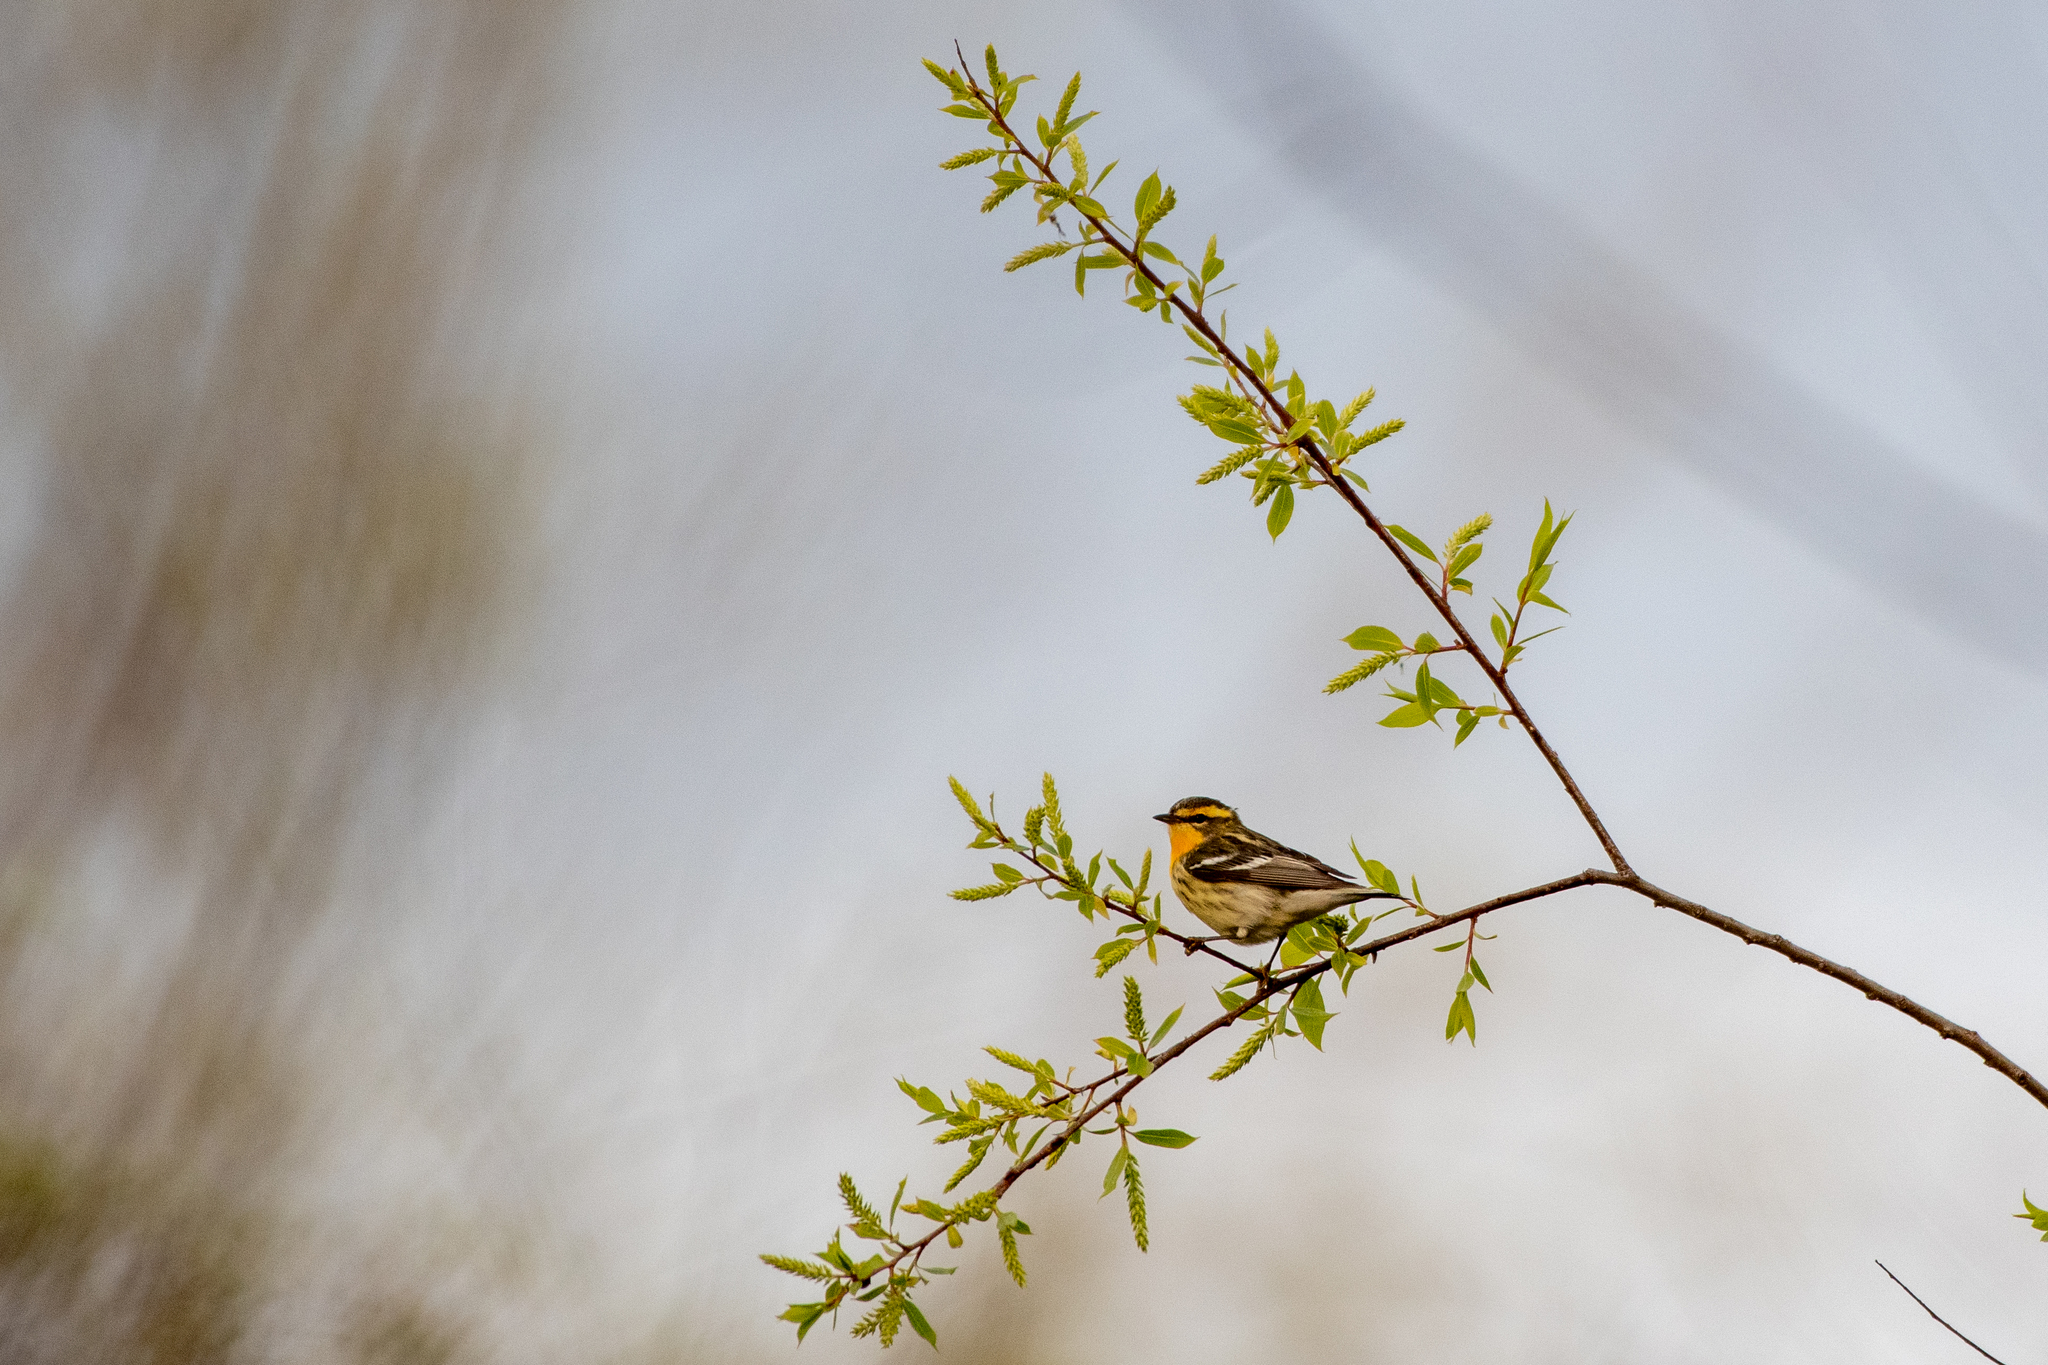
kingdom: Animalia
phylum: Chordata
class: Aves
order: Passeriformes
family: Parulidae
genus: Setophaga
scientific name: Setophaga fusca
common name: Blackburnian warbler
